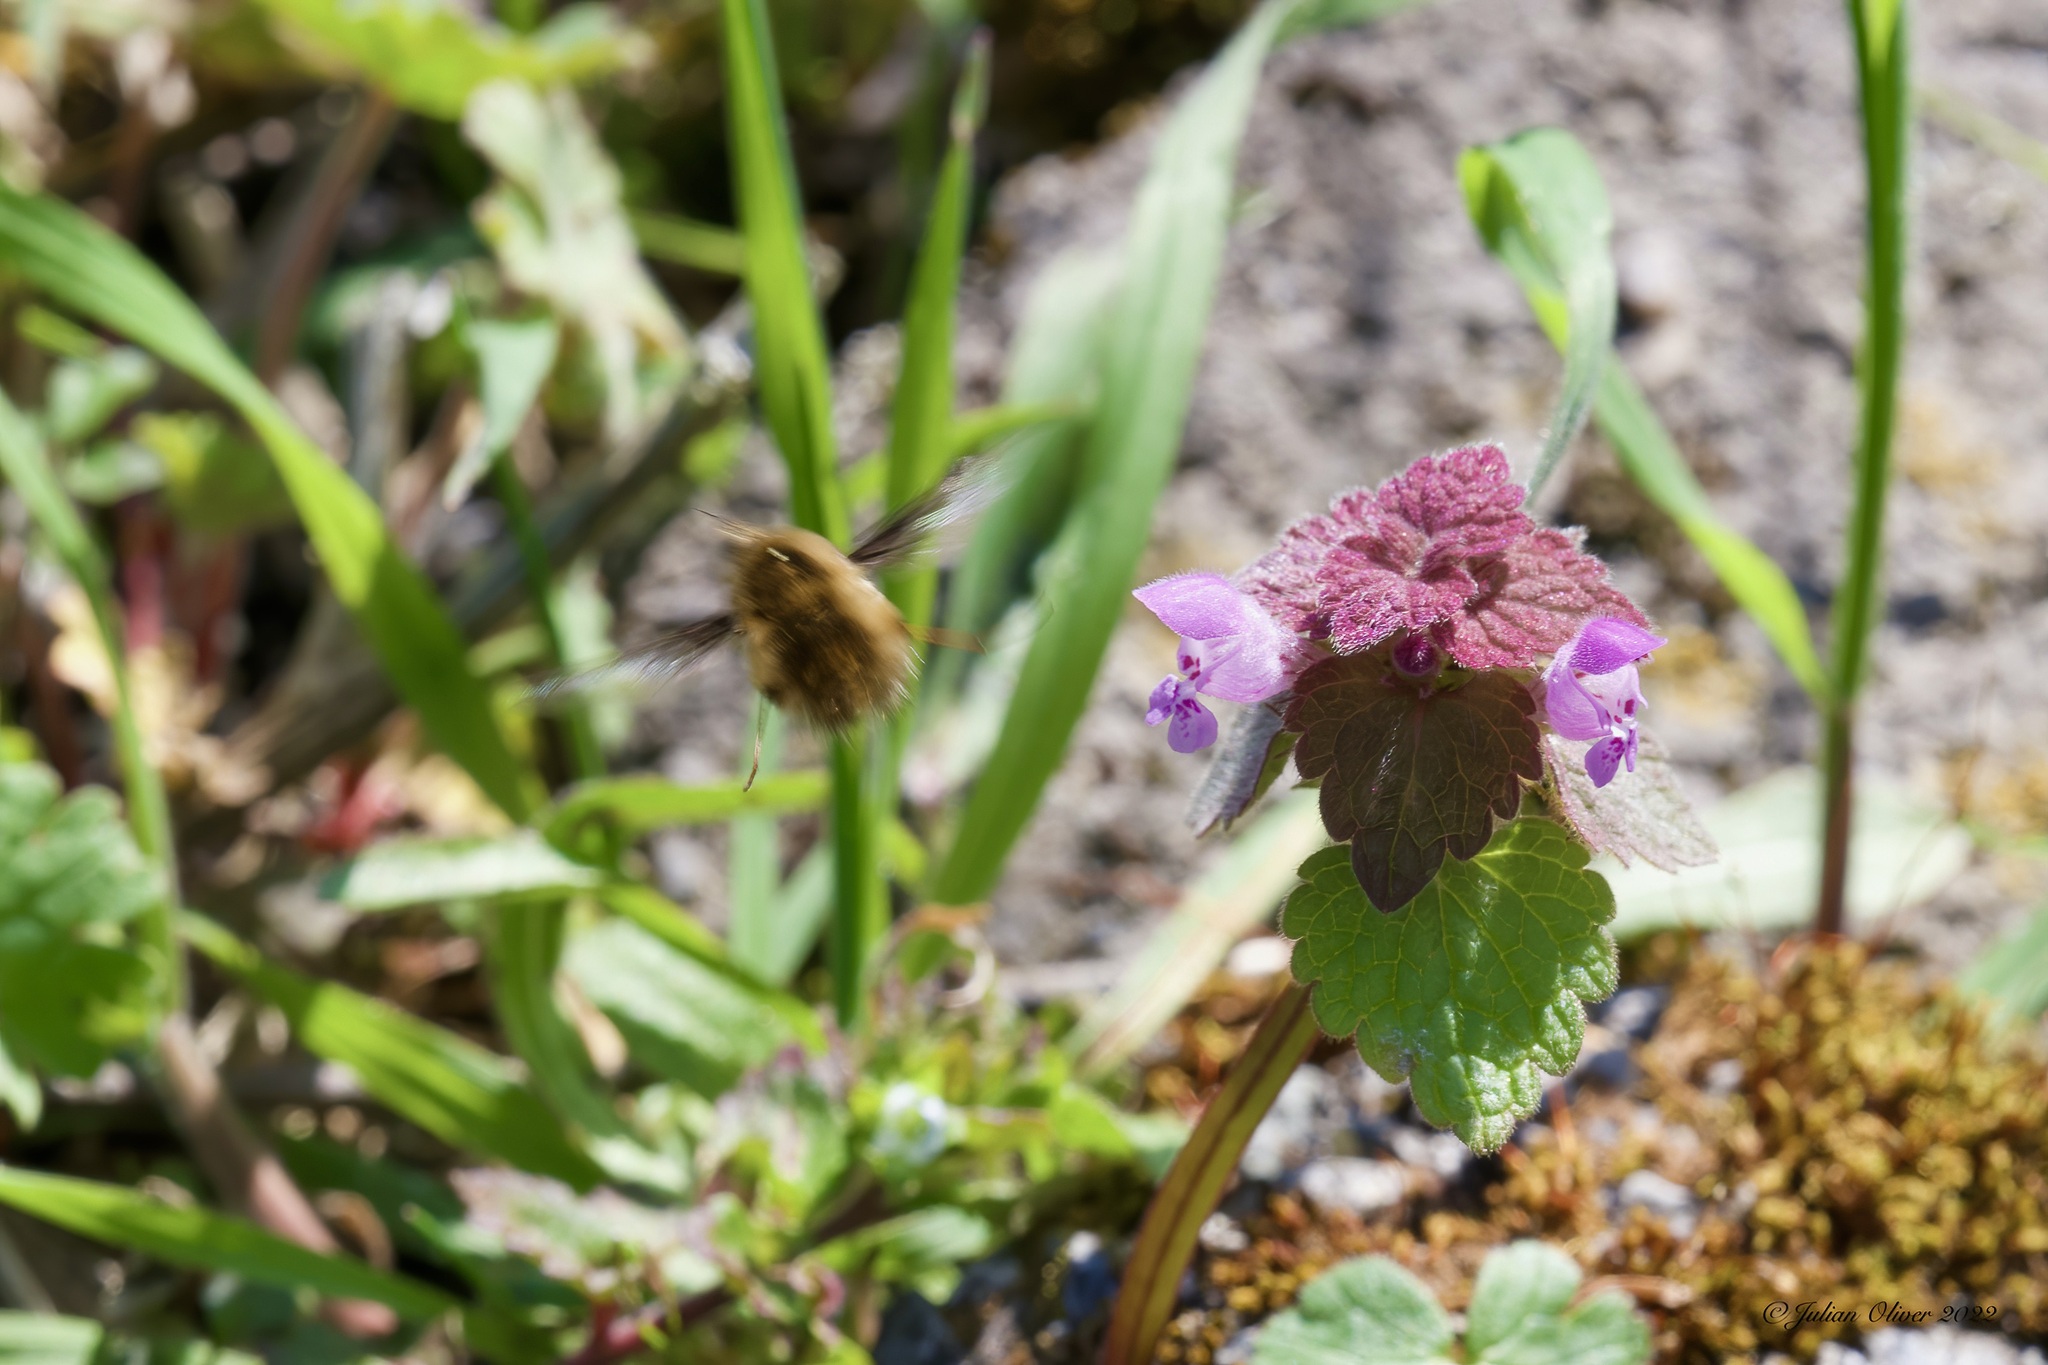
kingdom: Animalia
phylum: Arthropoda
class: Insecta
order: Diptera
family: Bombyliidae
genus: Bombylius
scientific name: Bombylius major
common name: Bee fly
